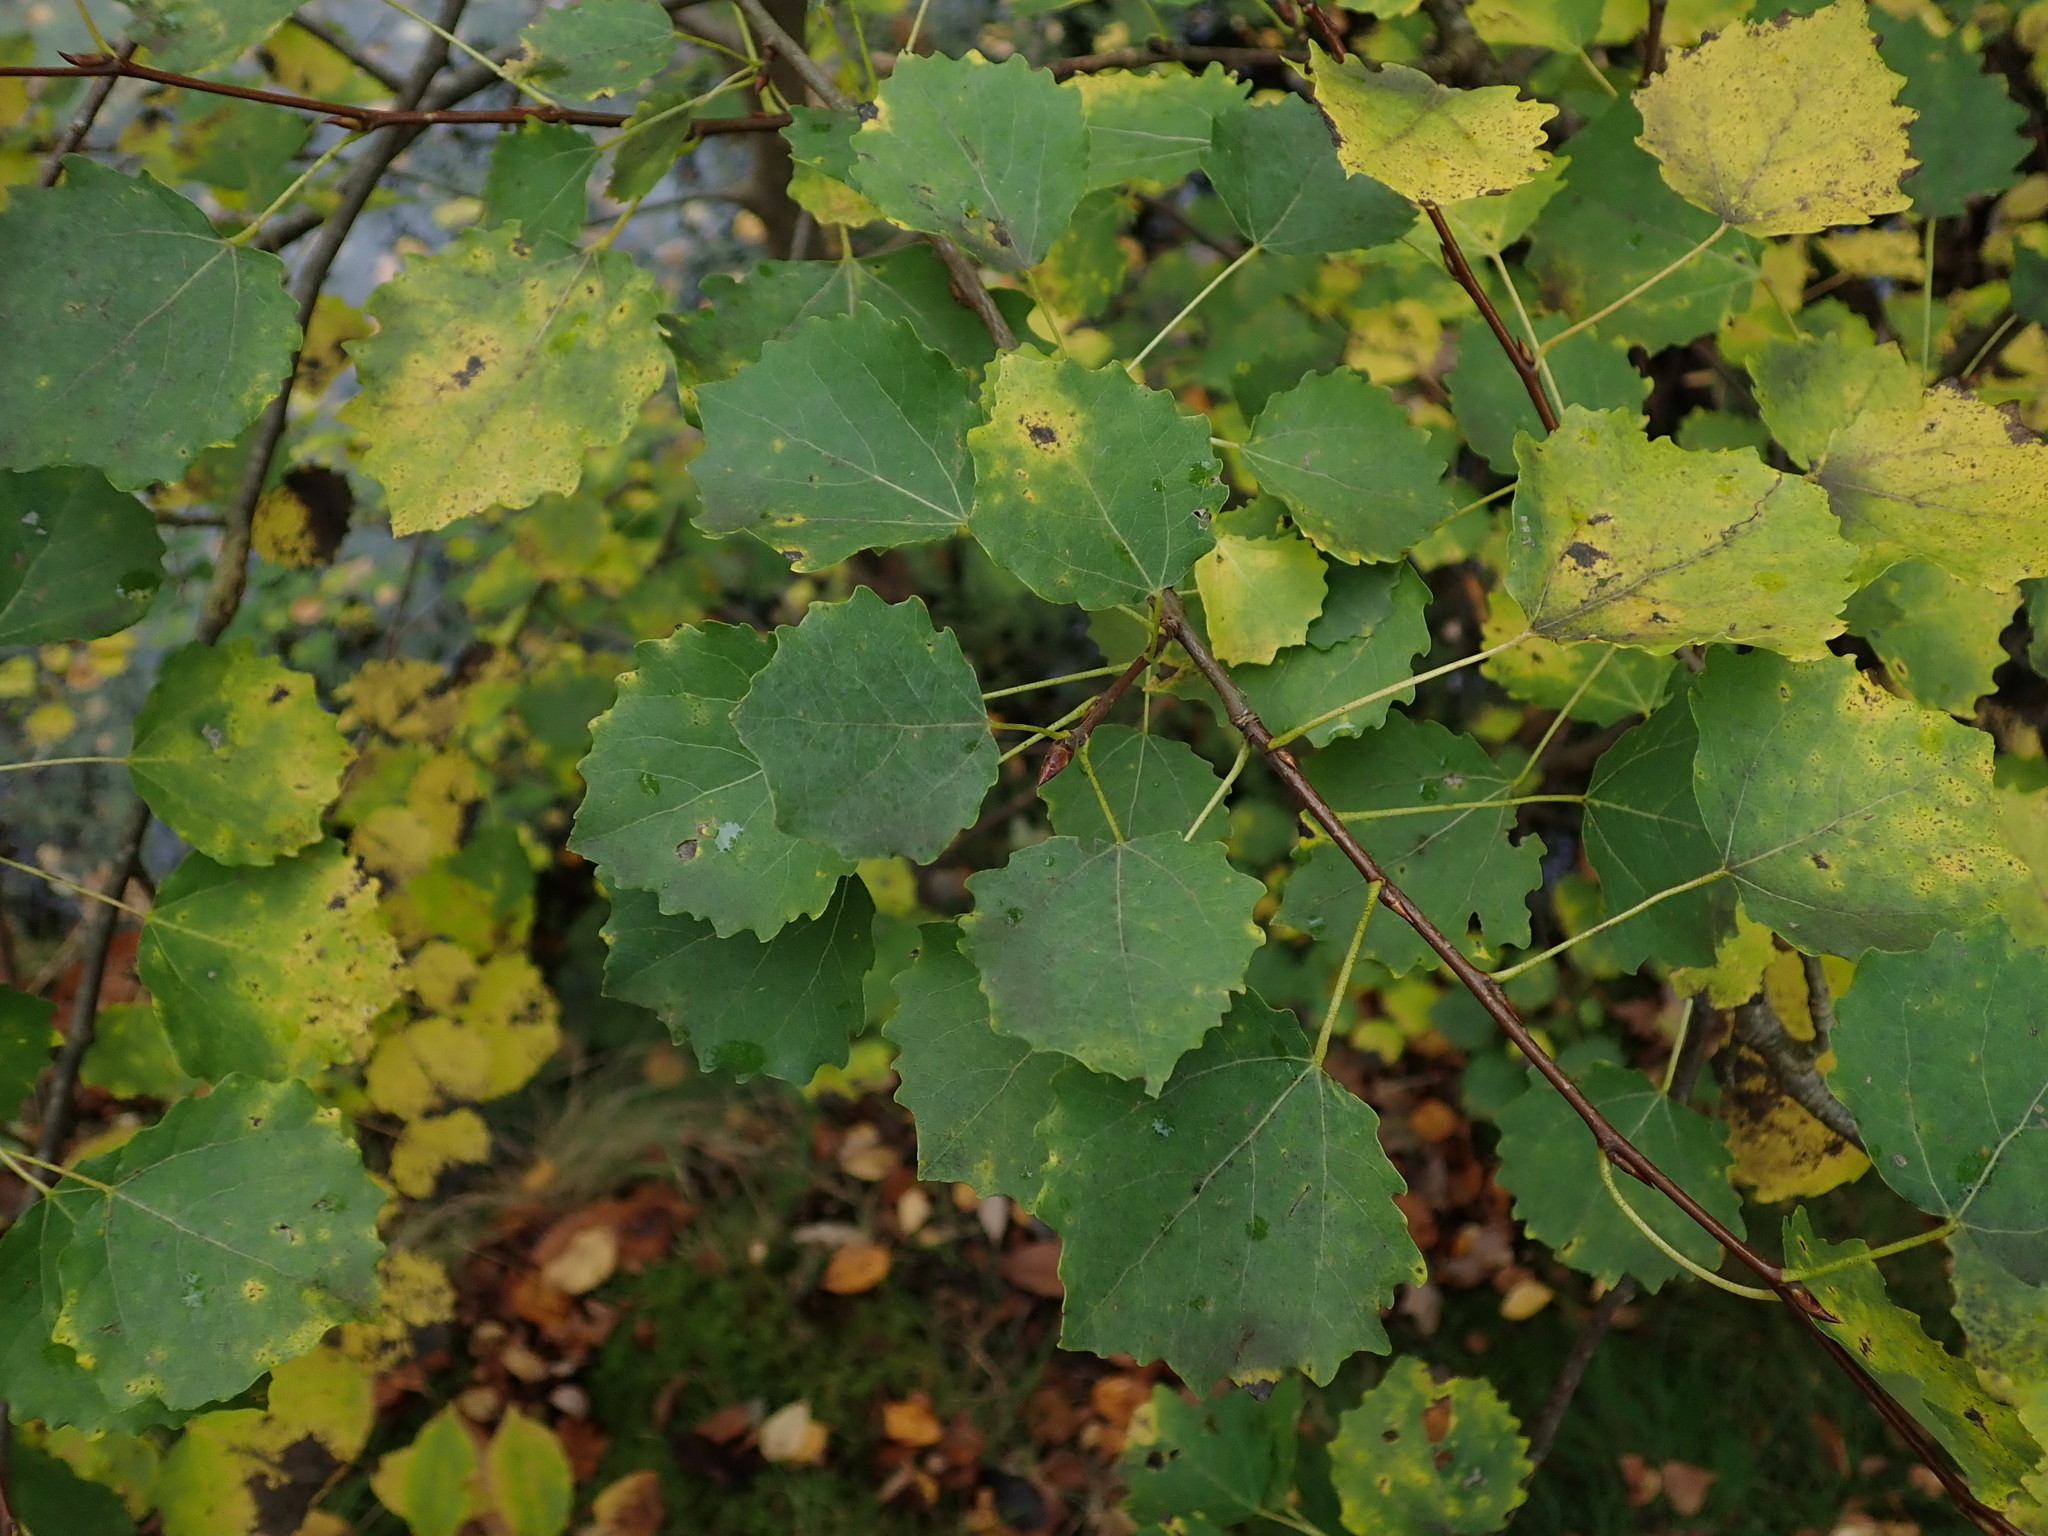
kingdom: Plantae
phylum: Tracheophyta
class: Magnoliopsida
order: Malpighiales
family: Salicaceae
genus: Populus
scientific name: Populus tremula
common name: European aspen
